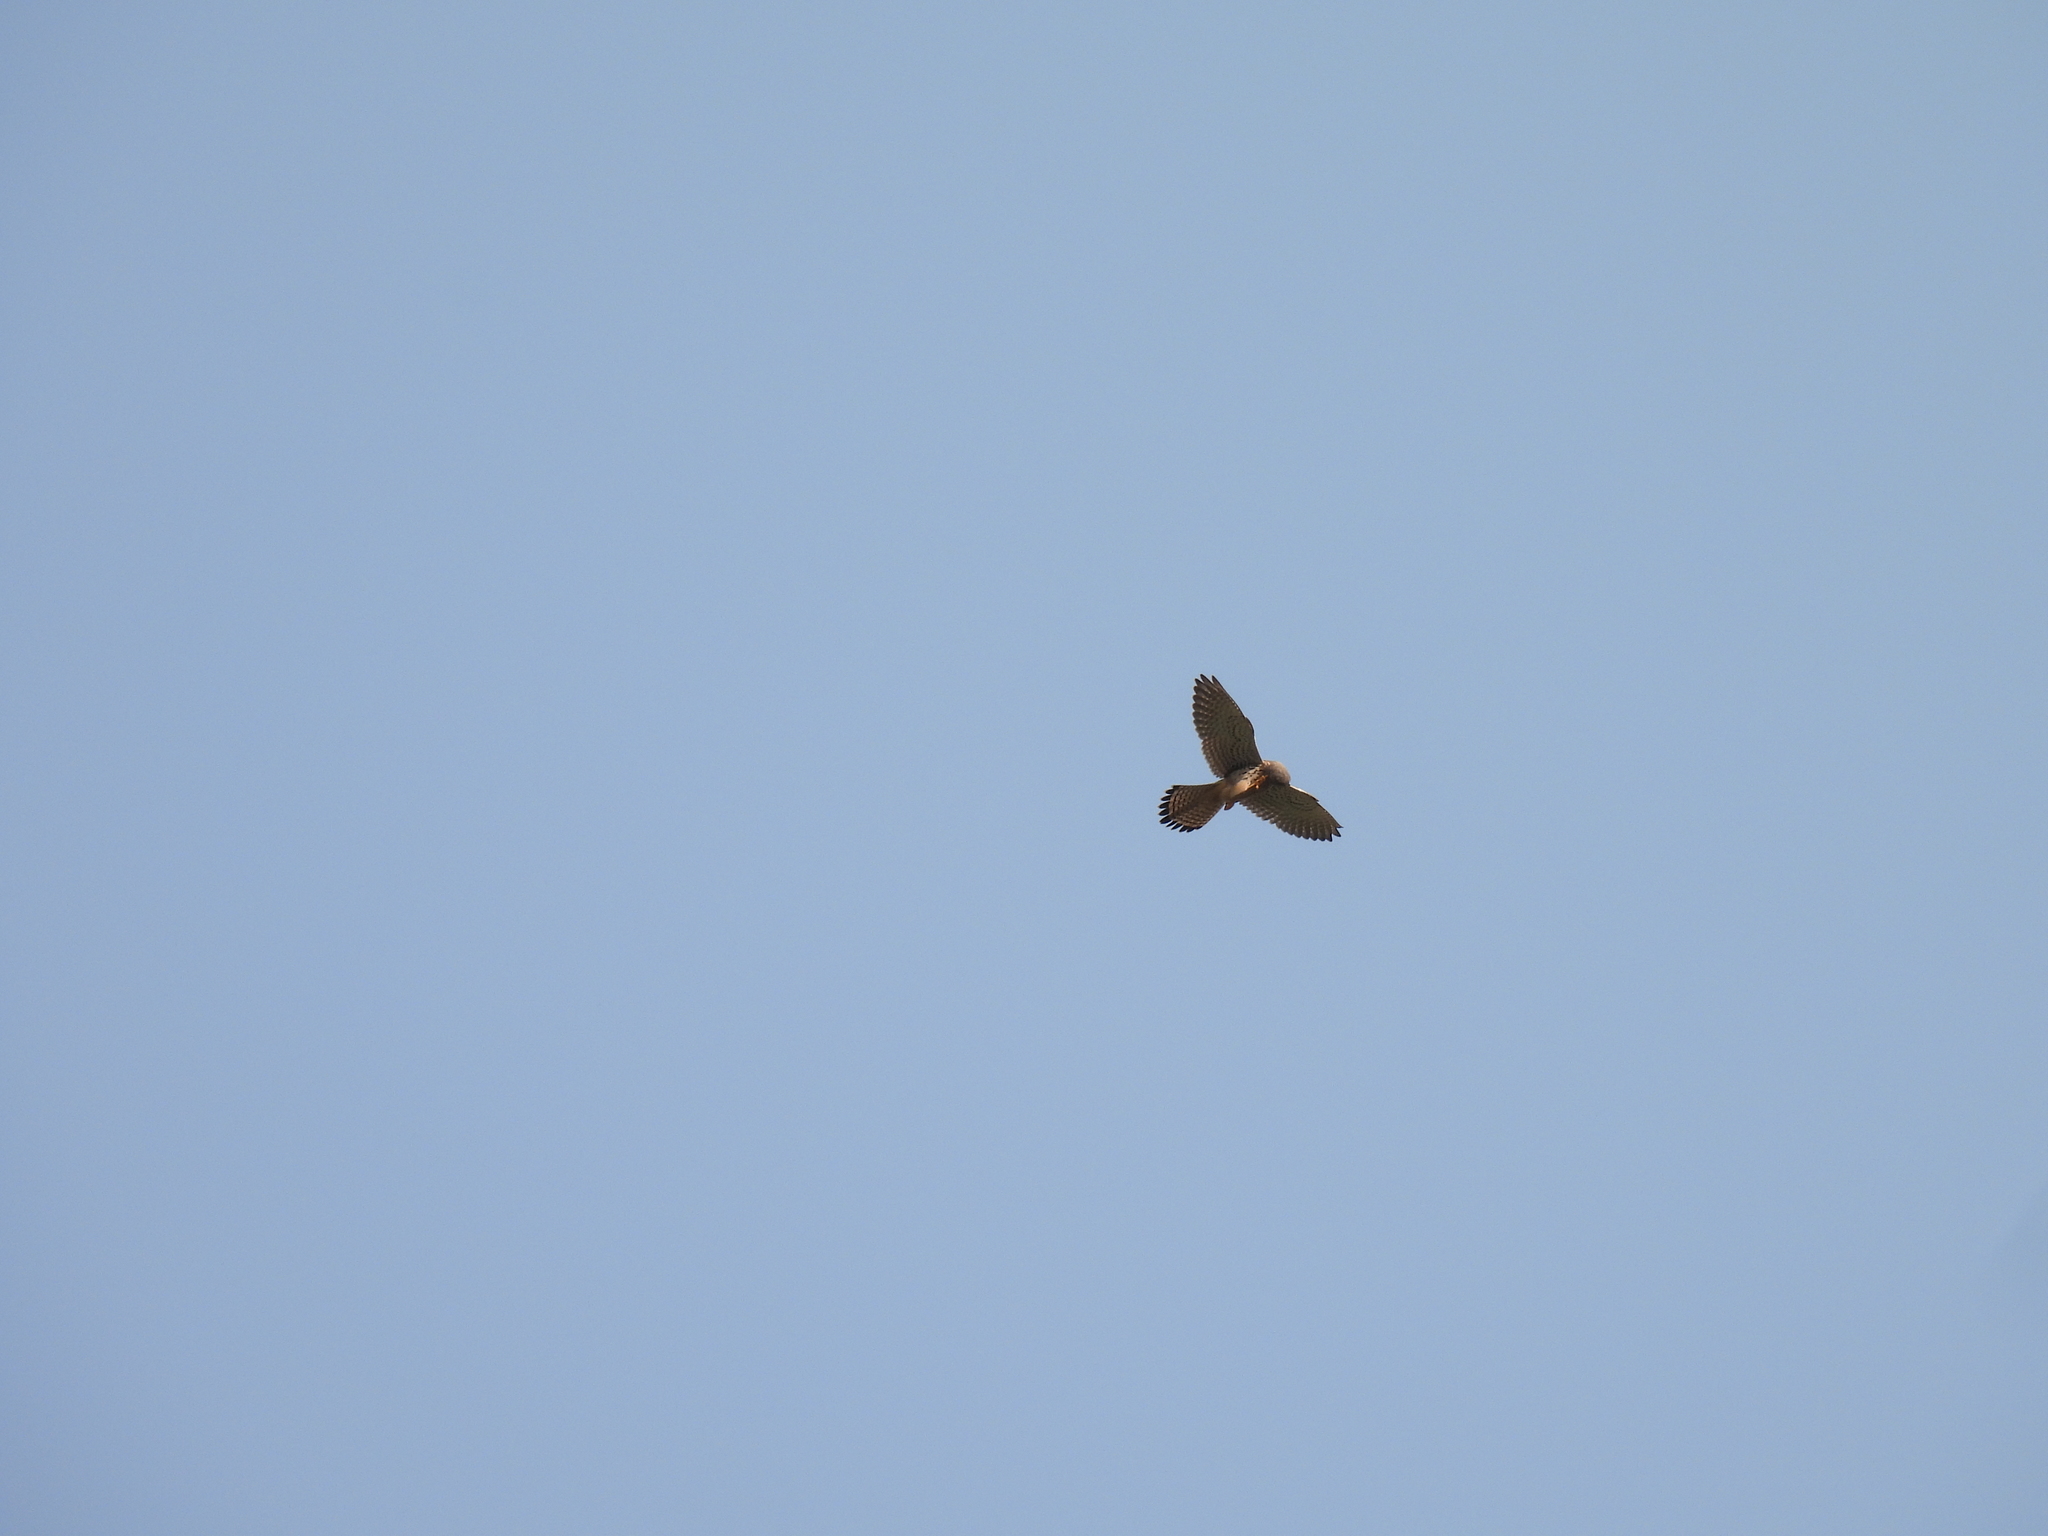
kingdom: Animalia
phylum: Chordata
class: Aves
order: Falconiformes
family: Falconidae
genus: Falco
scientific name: Falco tinnunculus
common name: Common kestrel
